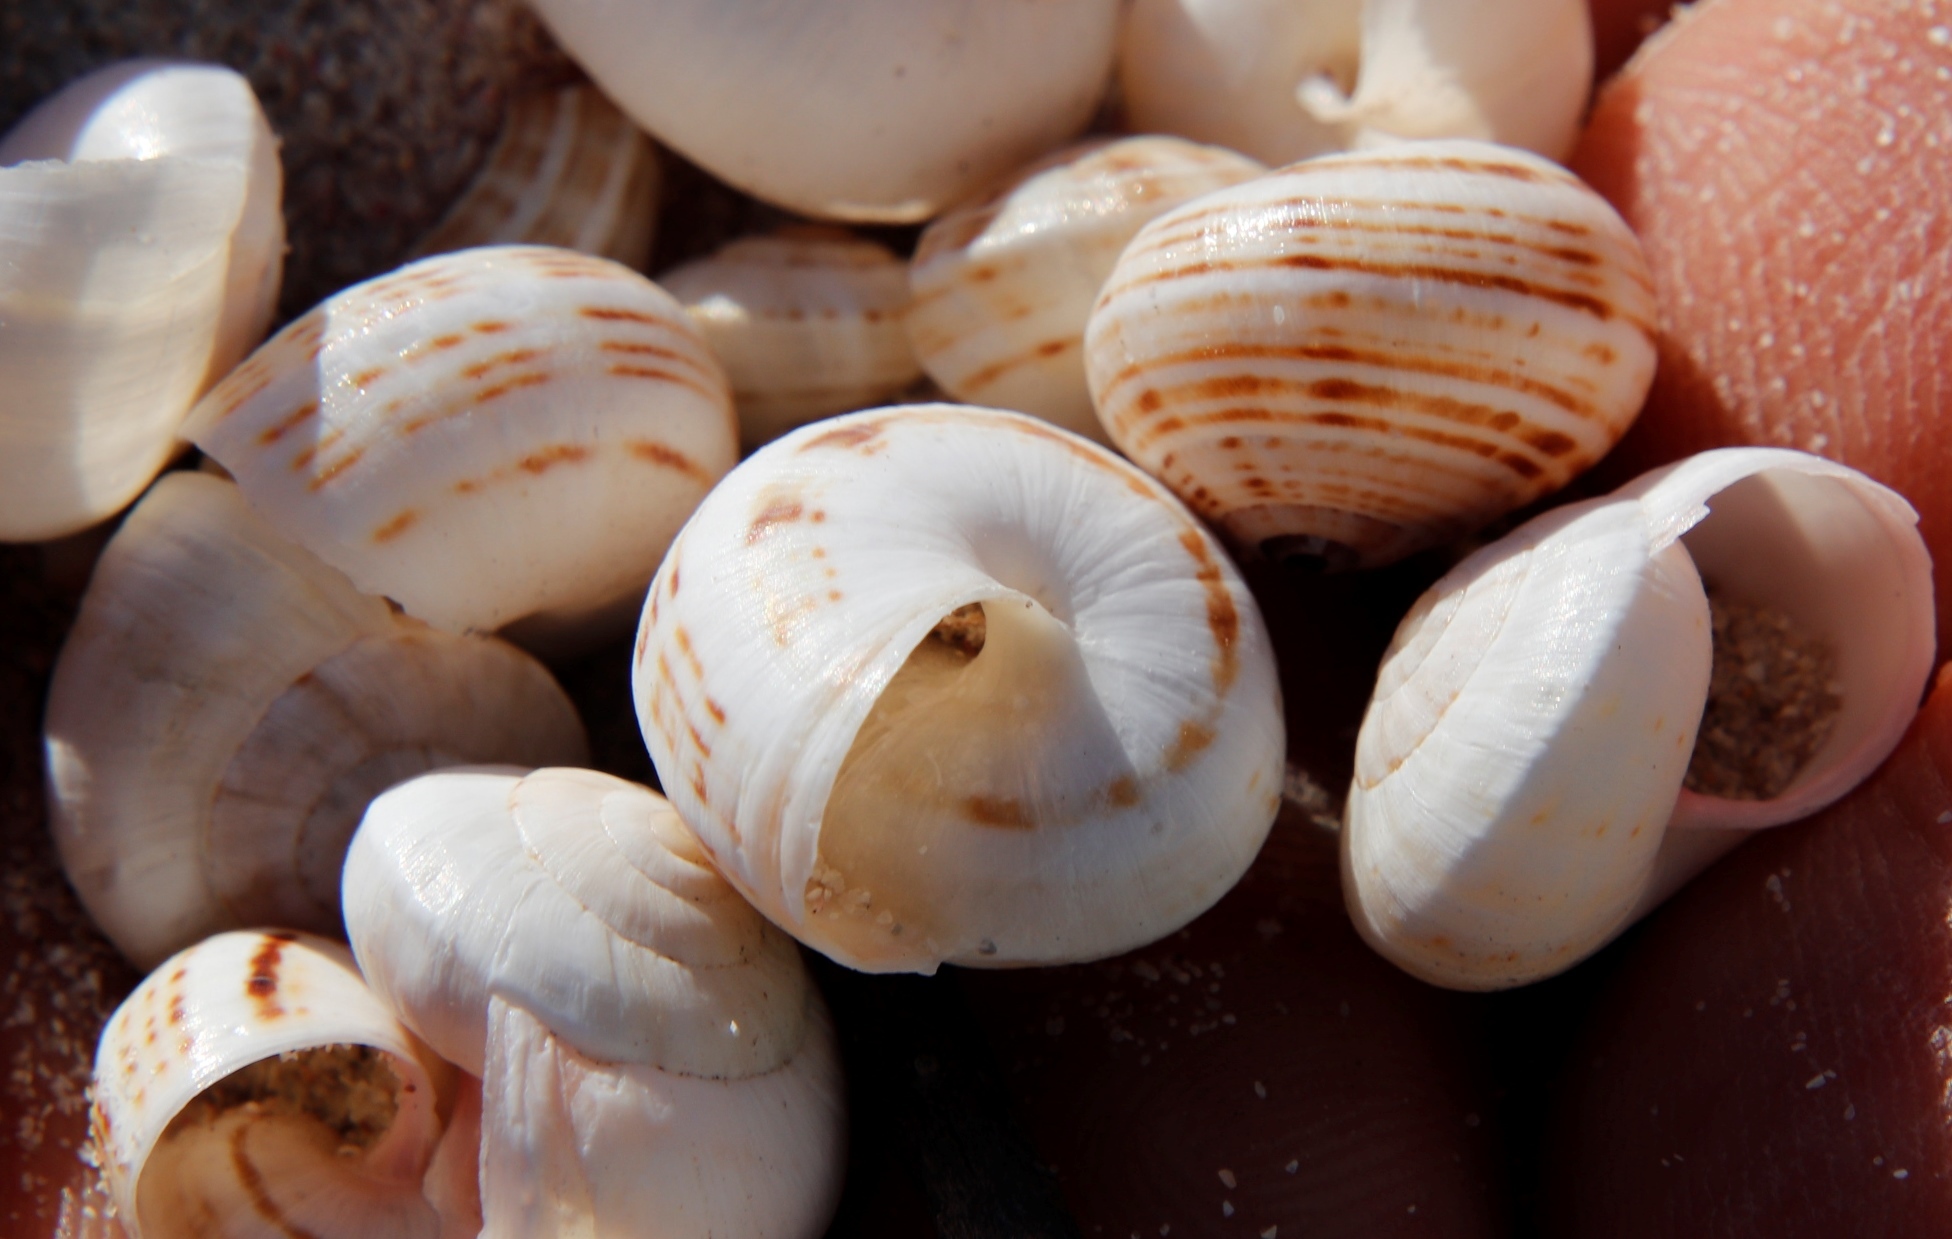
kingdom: Animalia
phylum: Mollusca
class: Gastropoda
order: Stylommatophora
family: Helicidae
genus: Theba
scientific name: Theba pisana
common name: White snail
